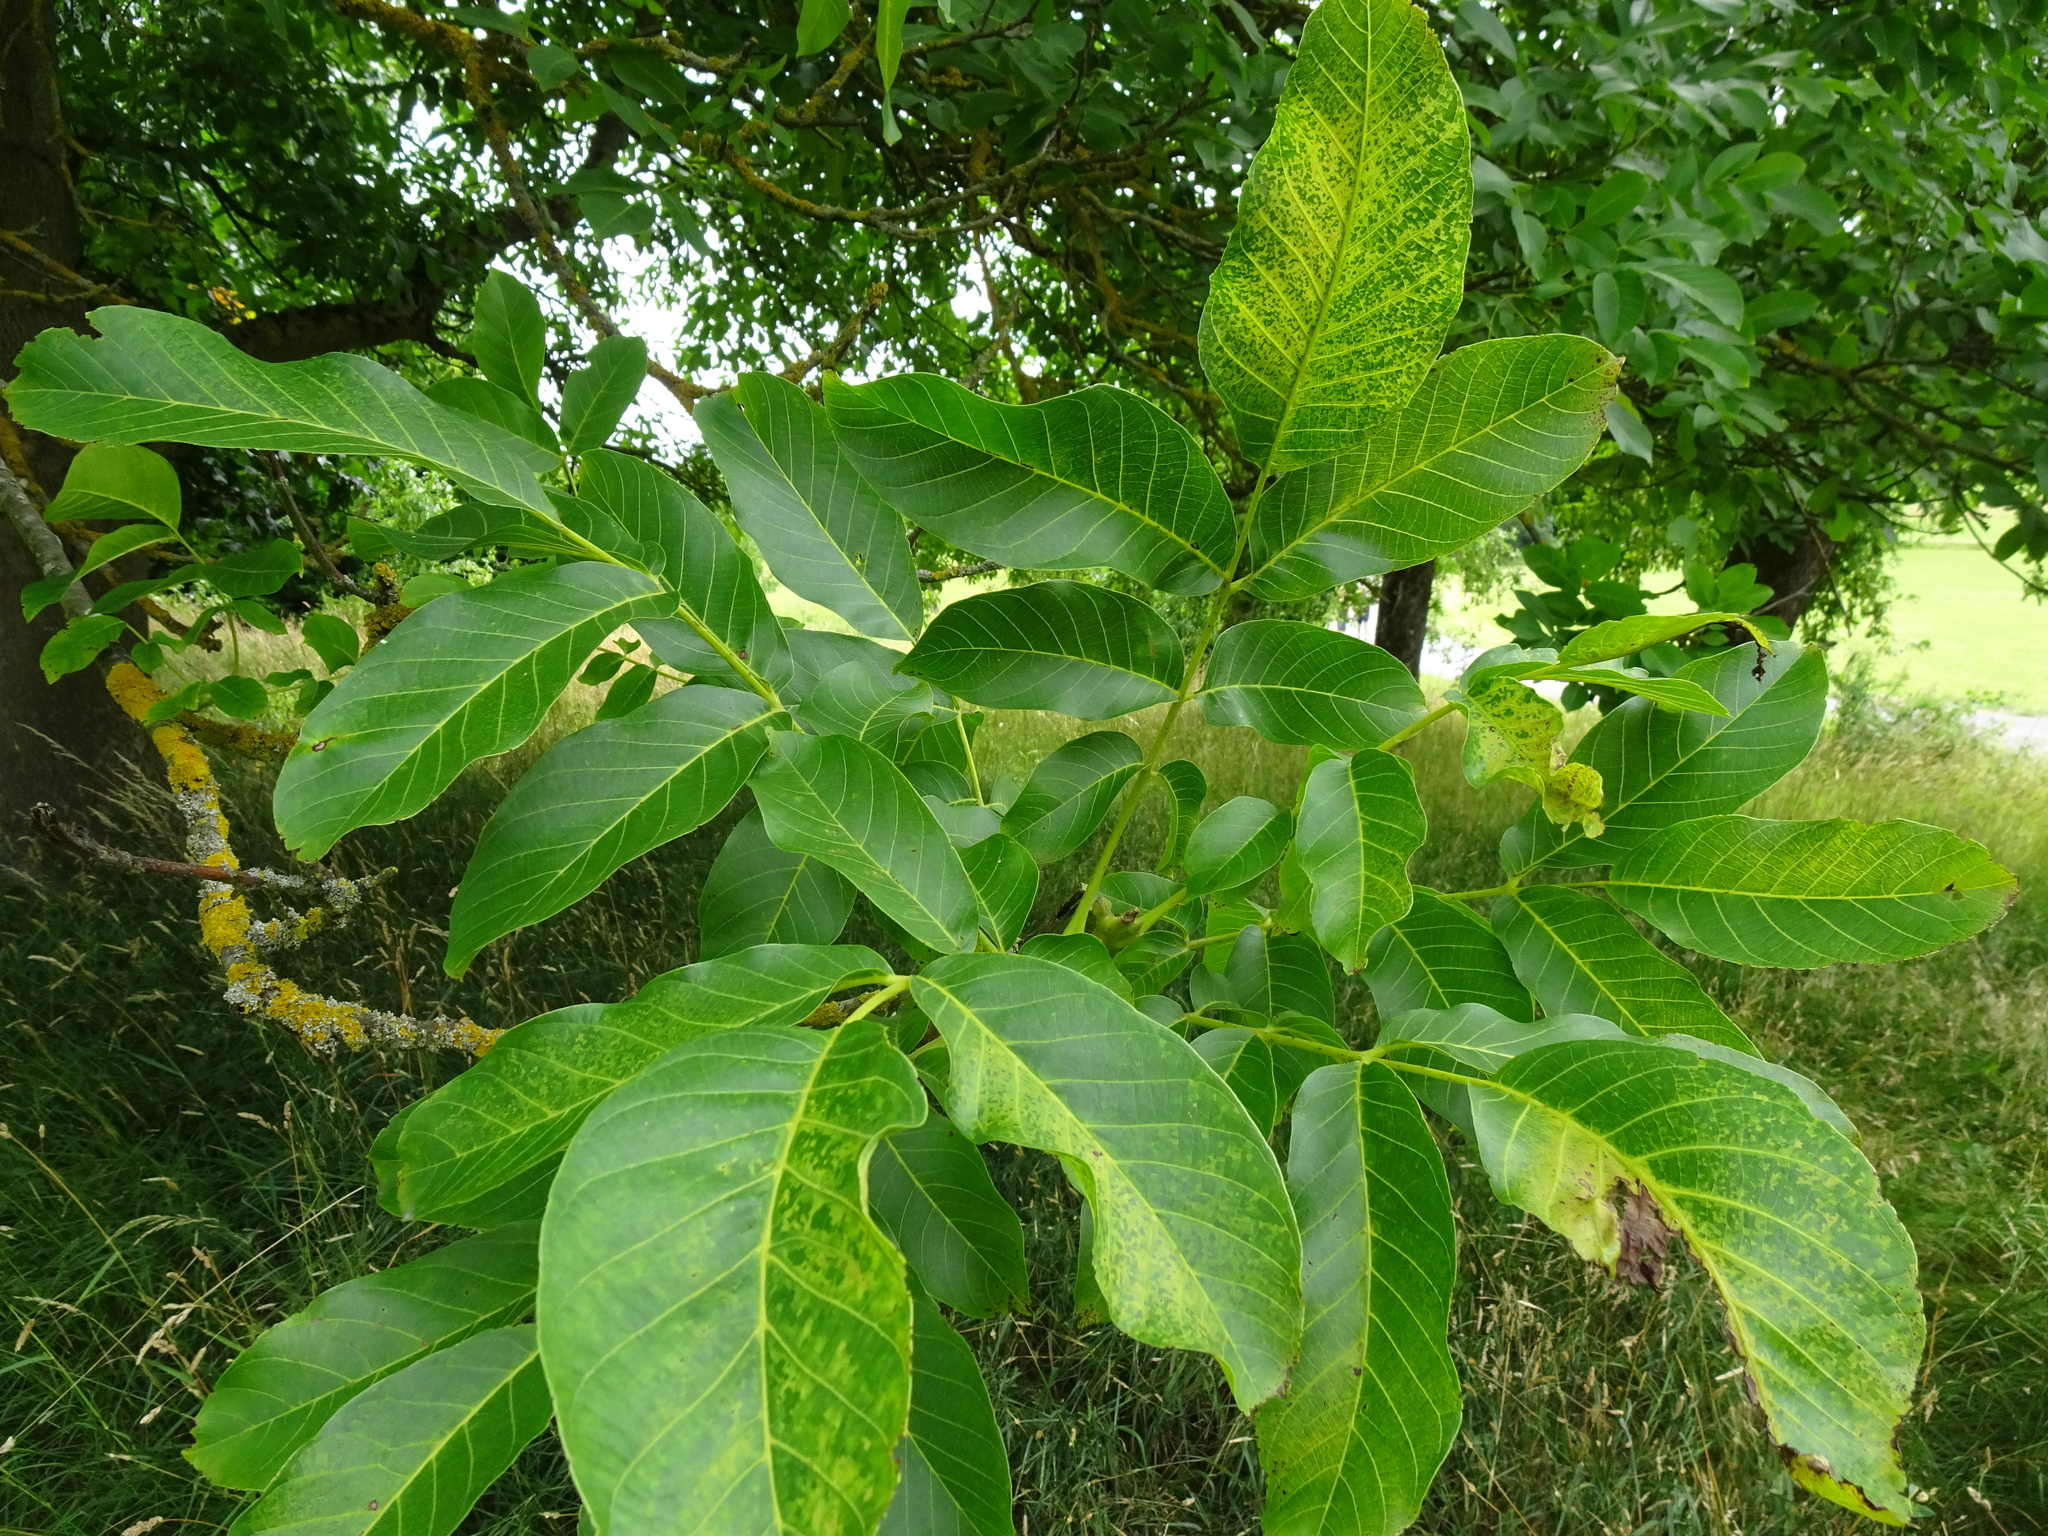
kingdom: Plantae
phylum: Tracheophyta
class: Magnoliopsida
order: Fagales
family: Juglandaceae
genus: Juglans
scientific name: Juglans regia
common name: Walnut
